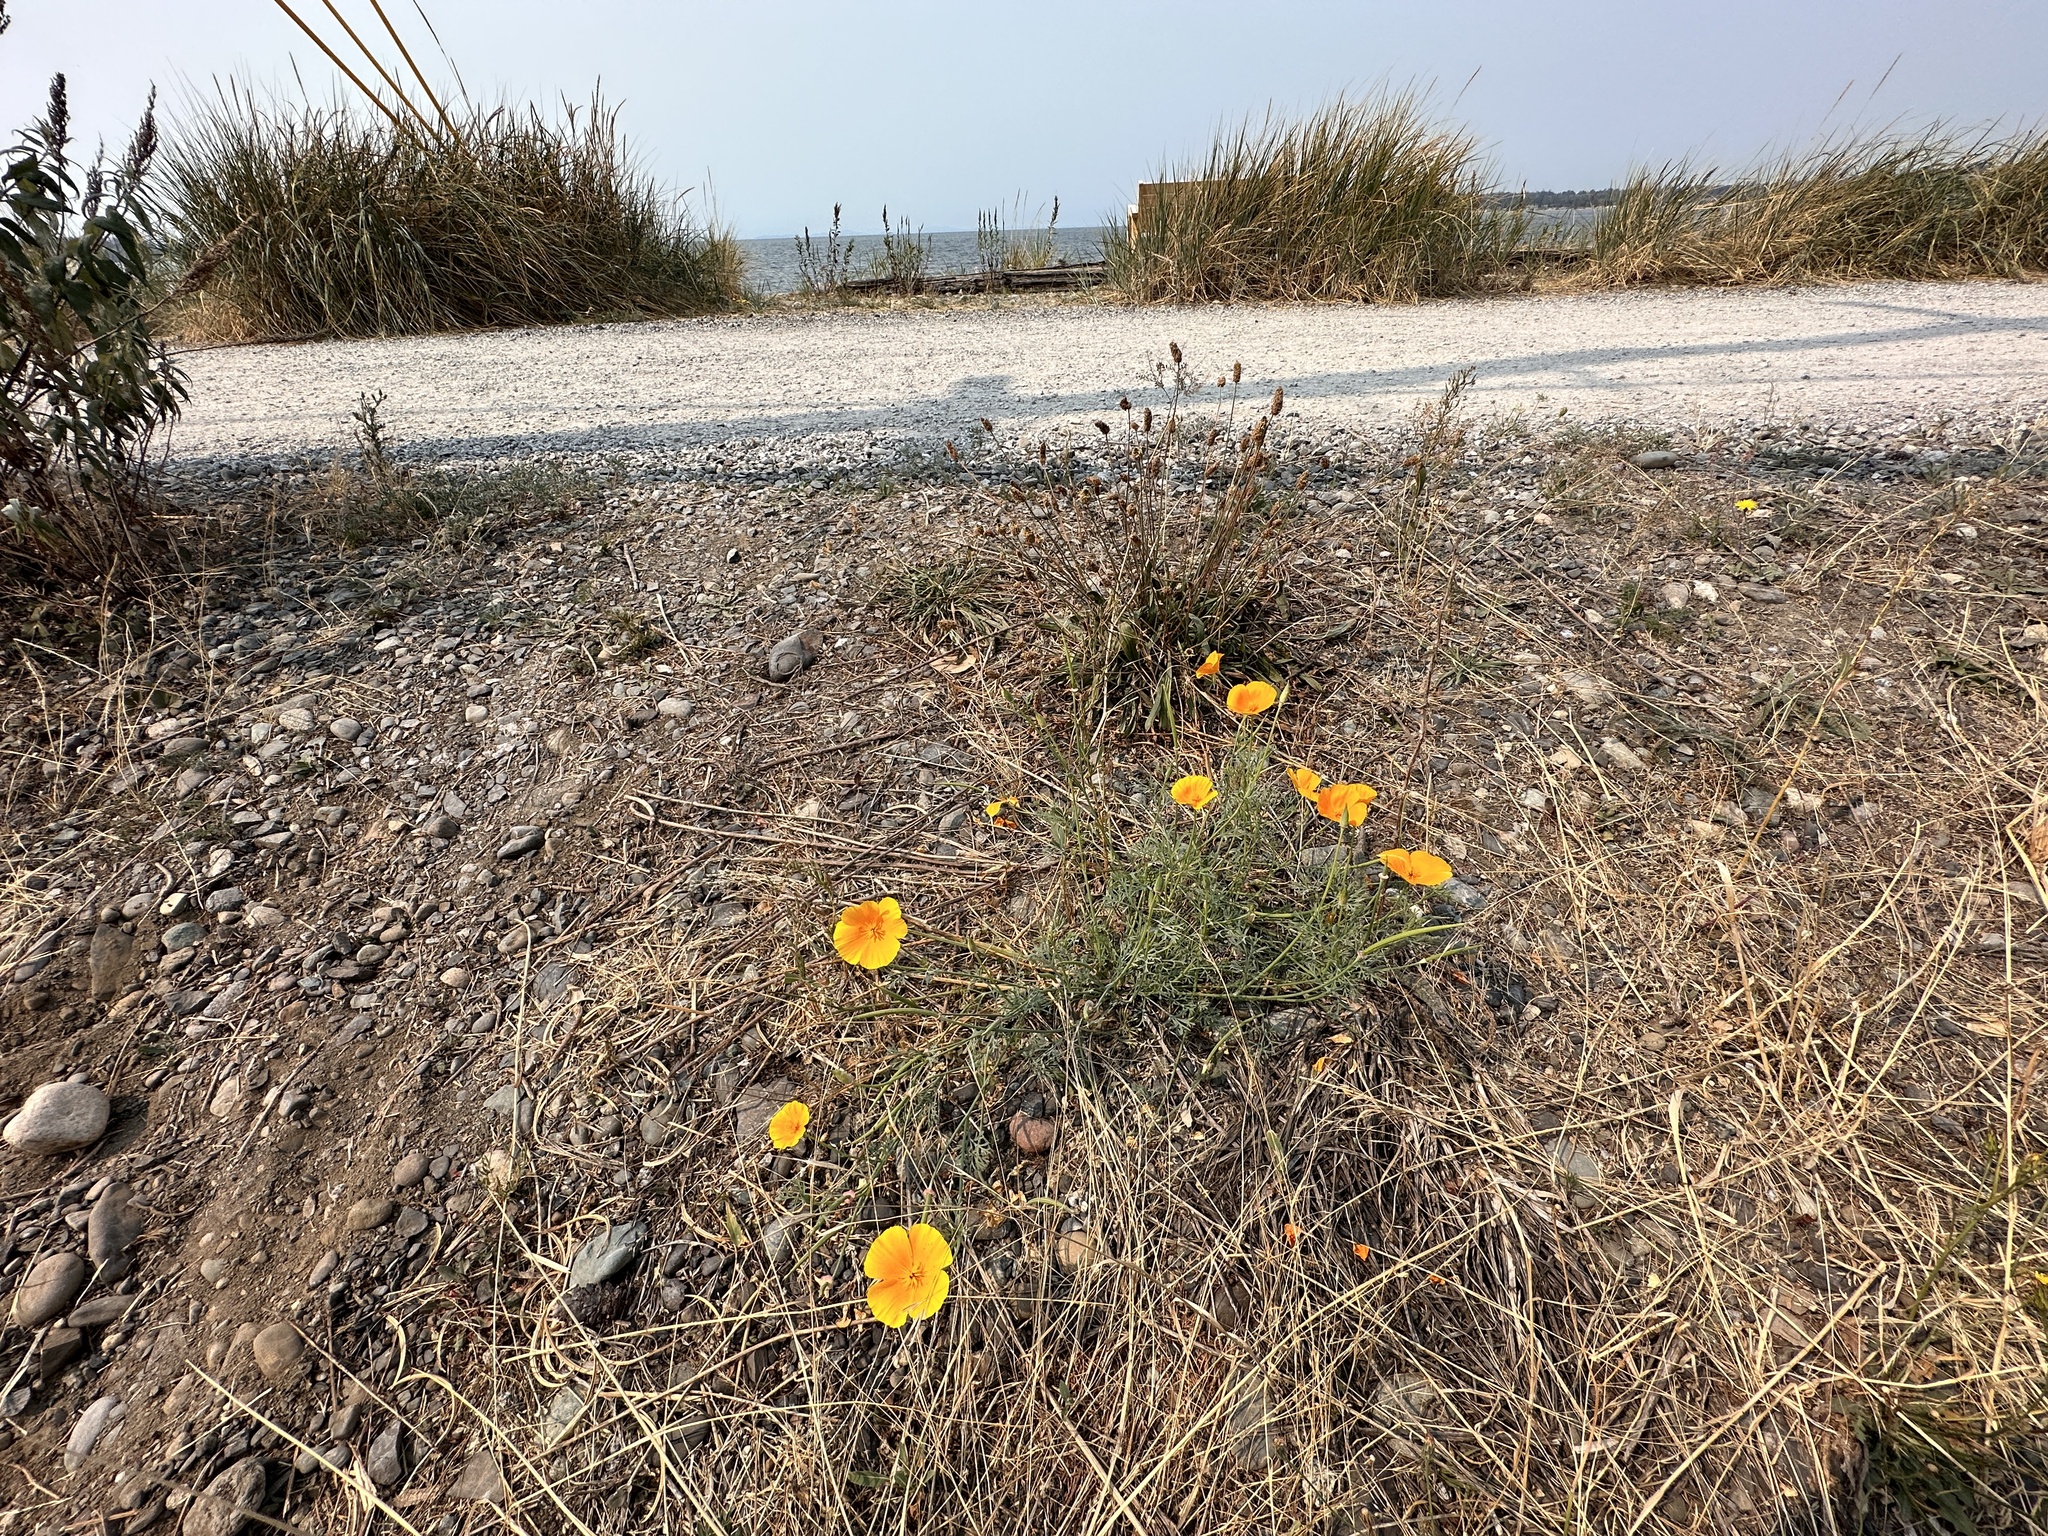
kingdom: Plantae
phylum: Tracheophyta
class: Magnoliopsida
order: Ranunculales
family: Papaveraceae
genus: Eschscholzia
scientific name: Eschscholzia californica
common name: California poppy
